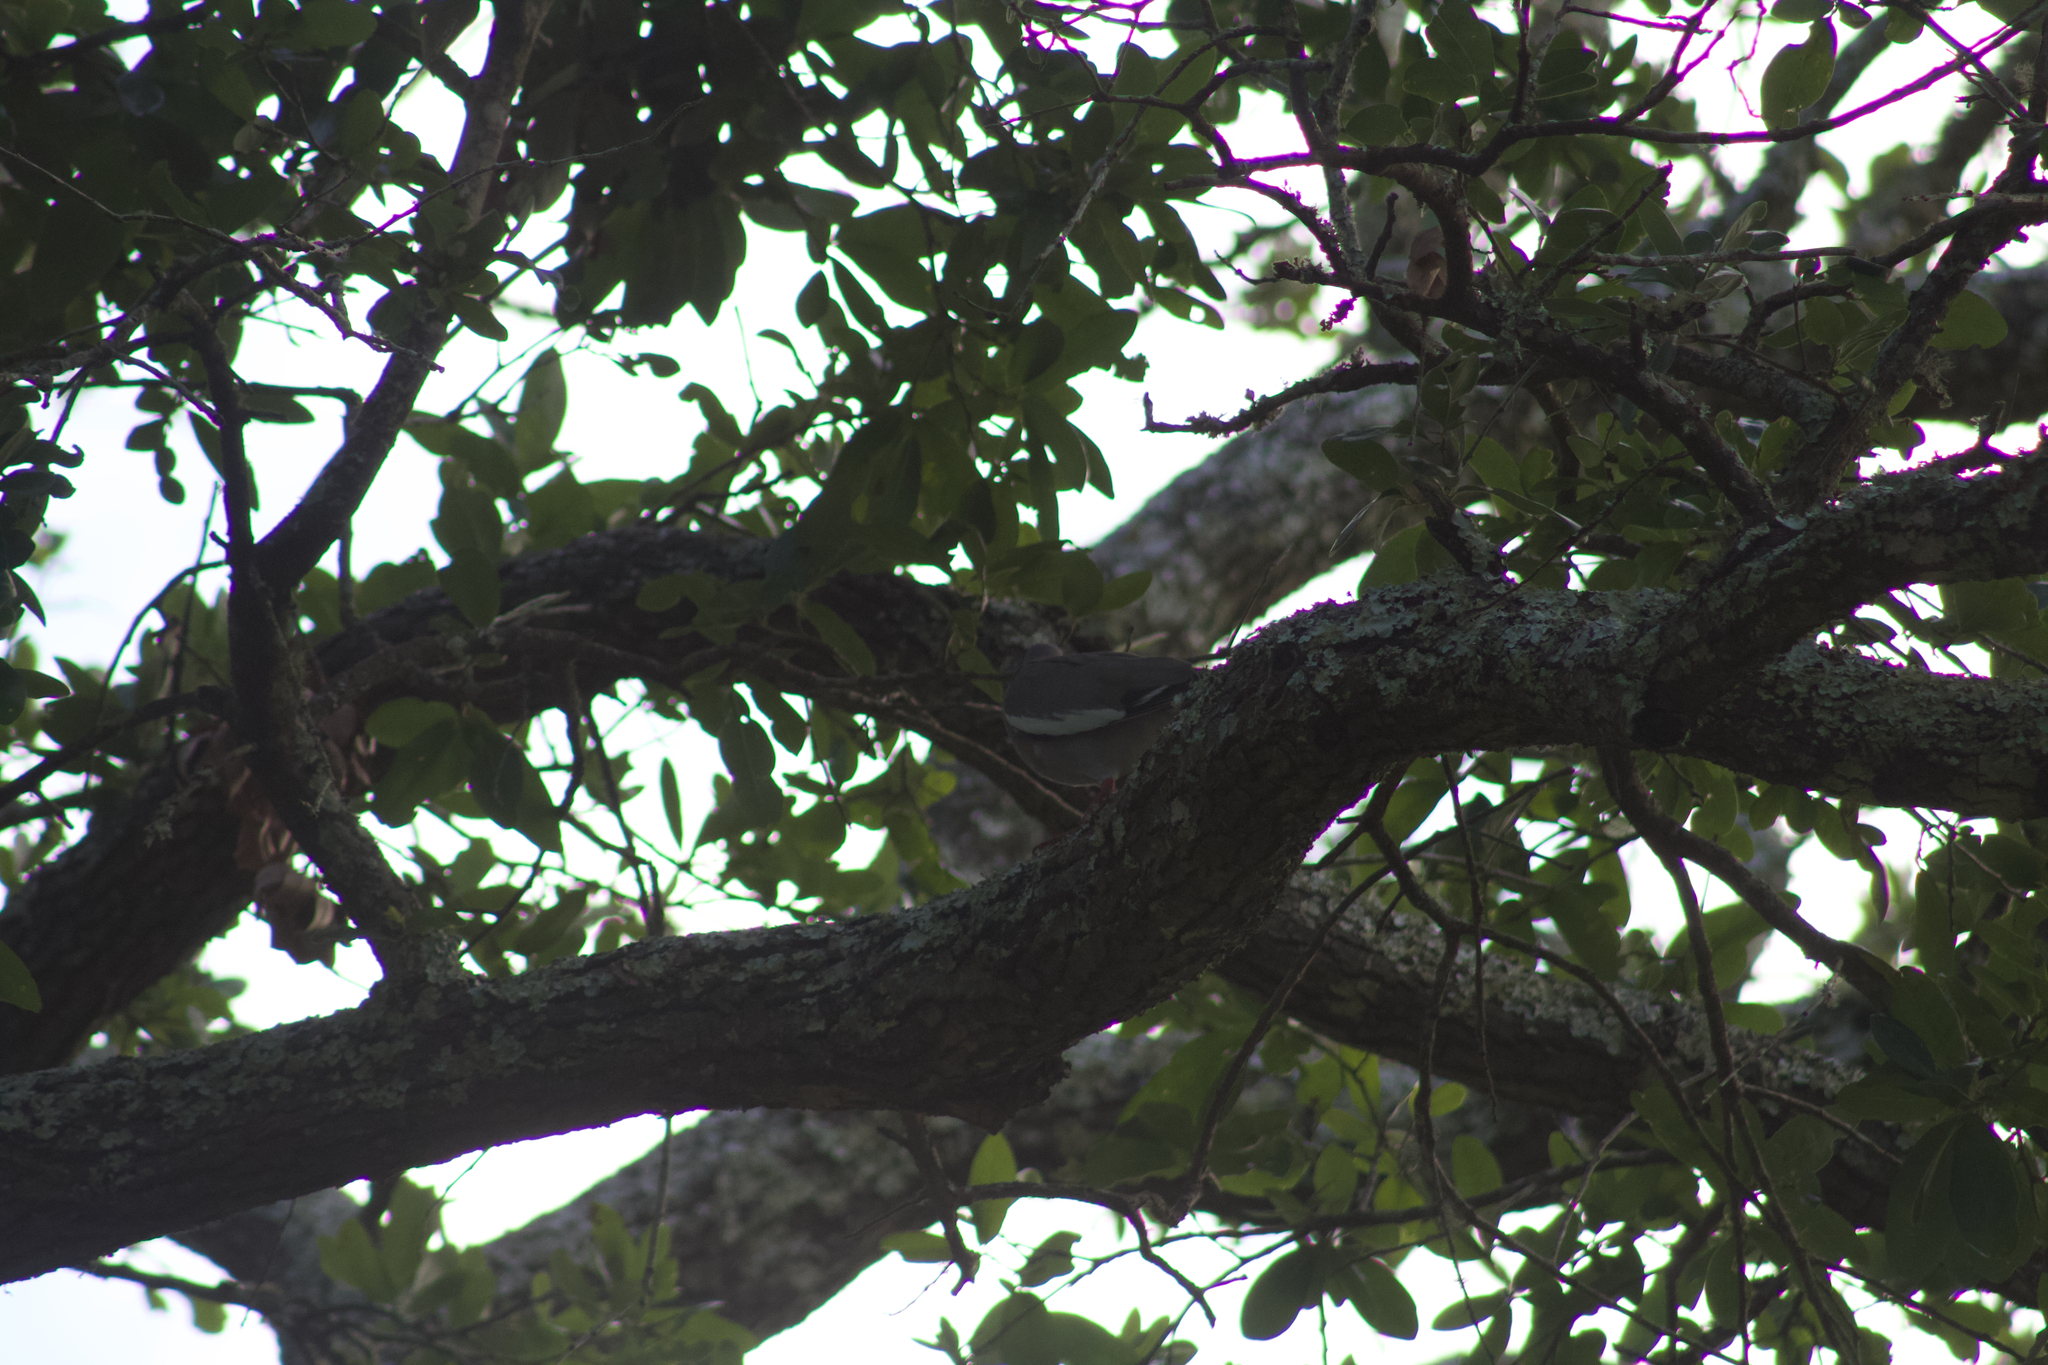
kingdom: Animalia
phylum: Chordata
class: Aves
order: Columbiformes
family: Columbidae
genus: Zenaida
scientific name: Zenaida asiatica
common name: White-winged dove
